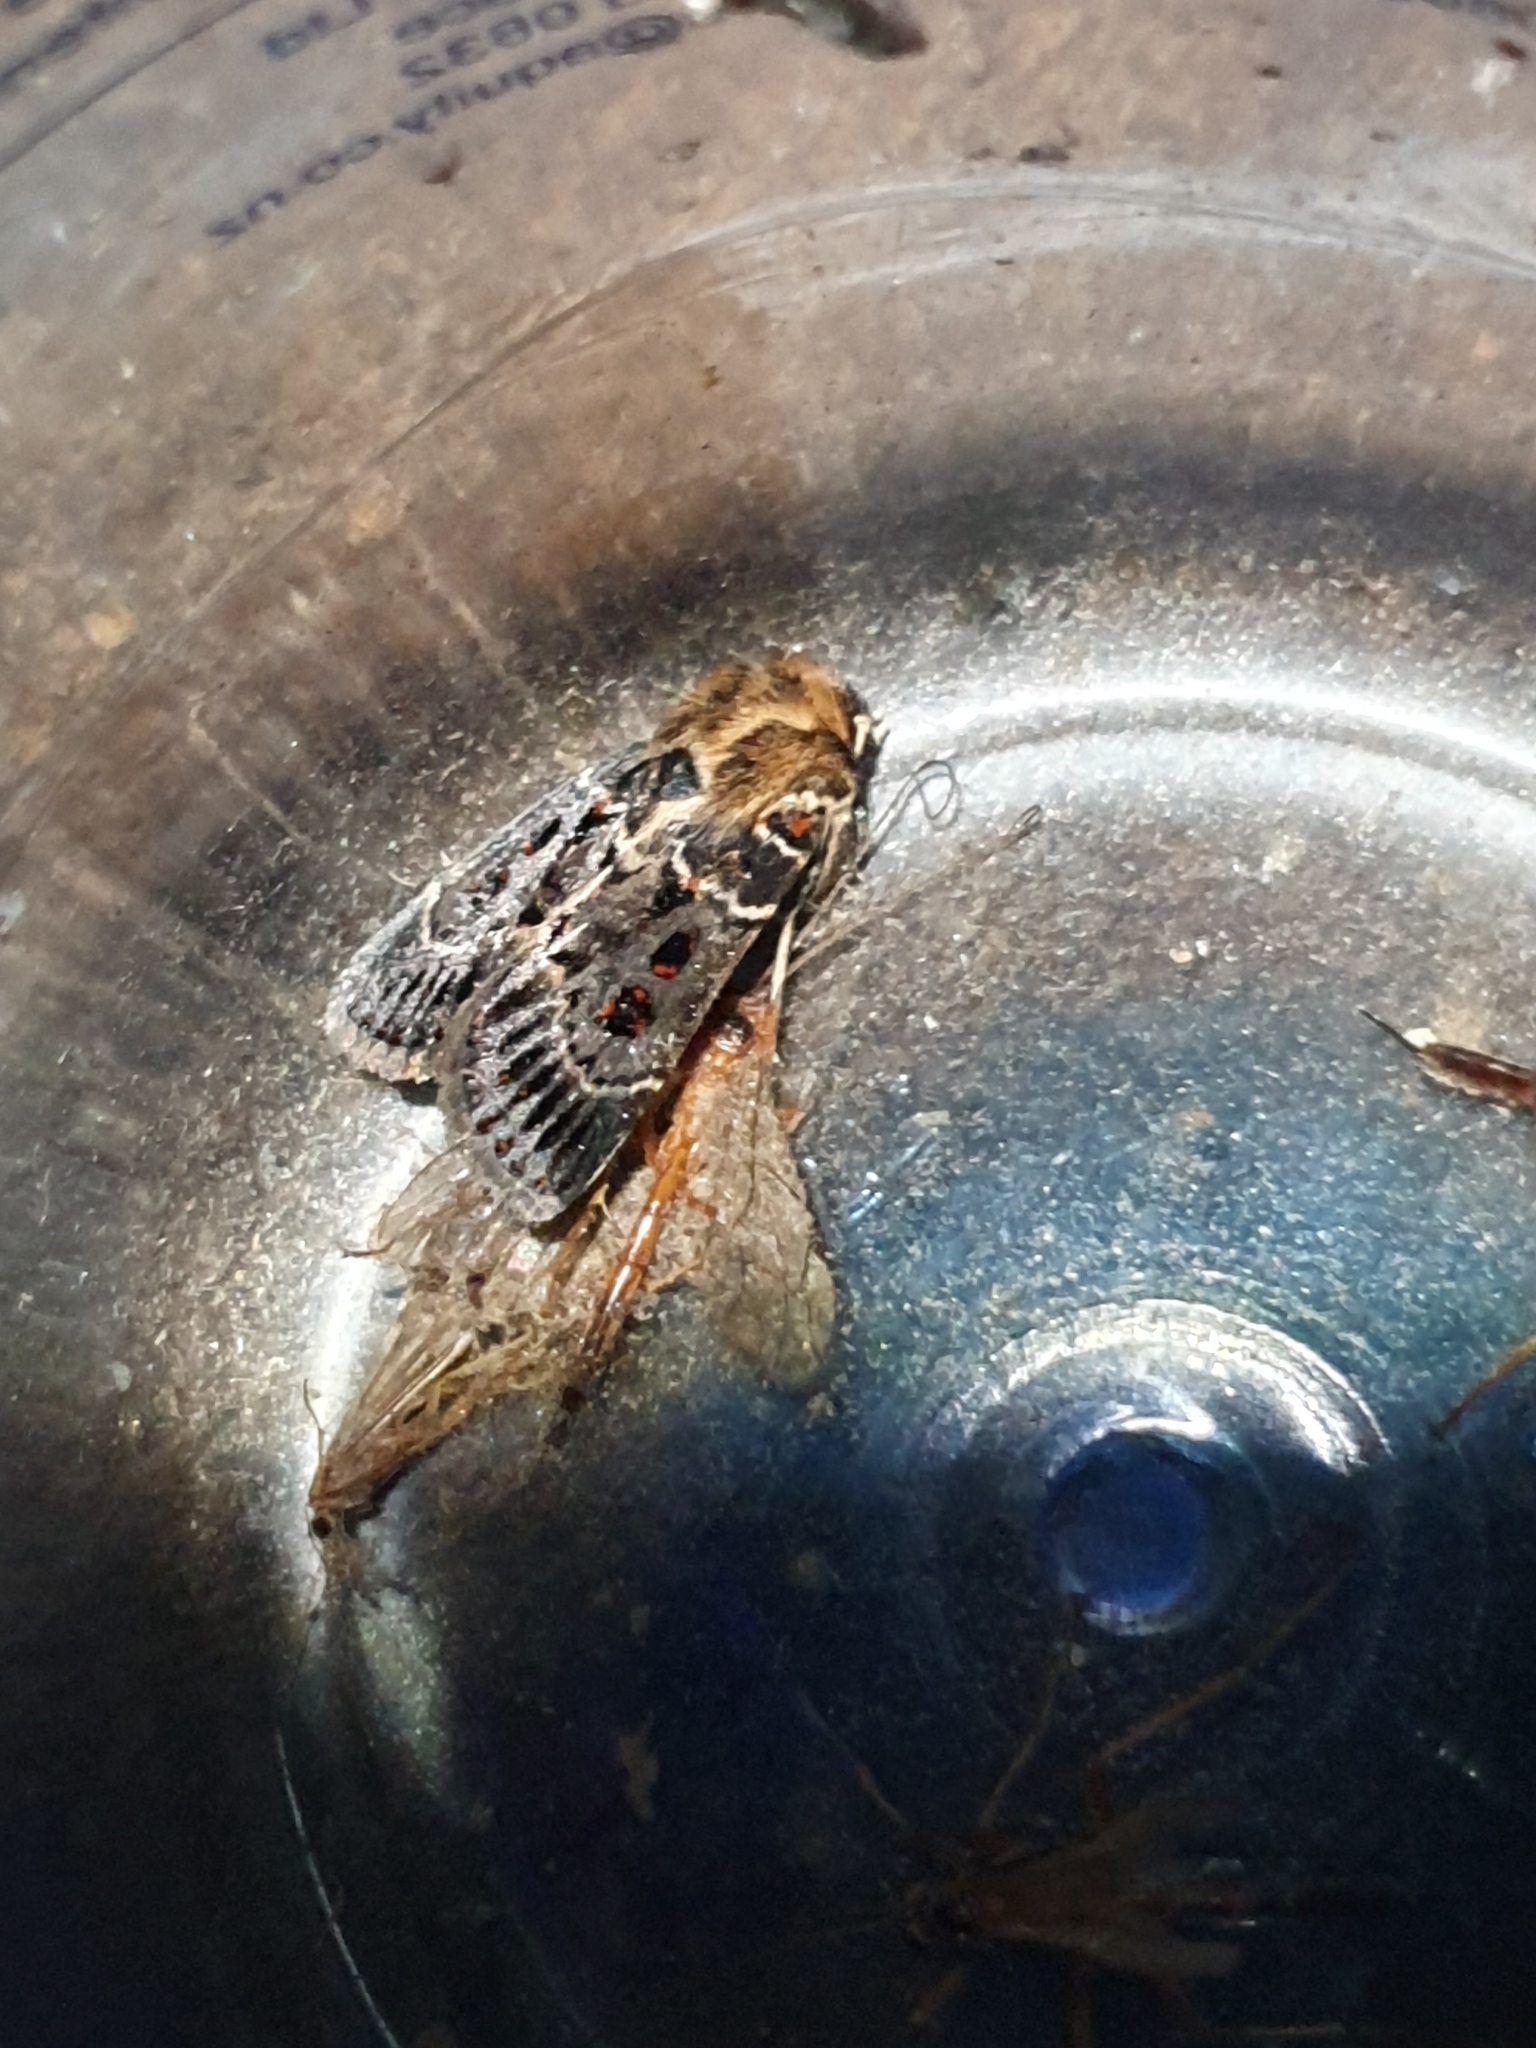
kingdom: Animalia
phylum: Arthropoda
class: Insecta
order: Lepidoptera
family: Noctuidae
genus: Proteuxoa
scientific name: Proteuxoa sanguinipuncta
